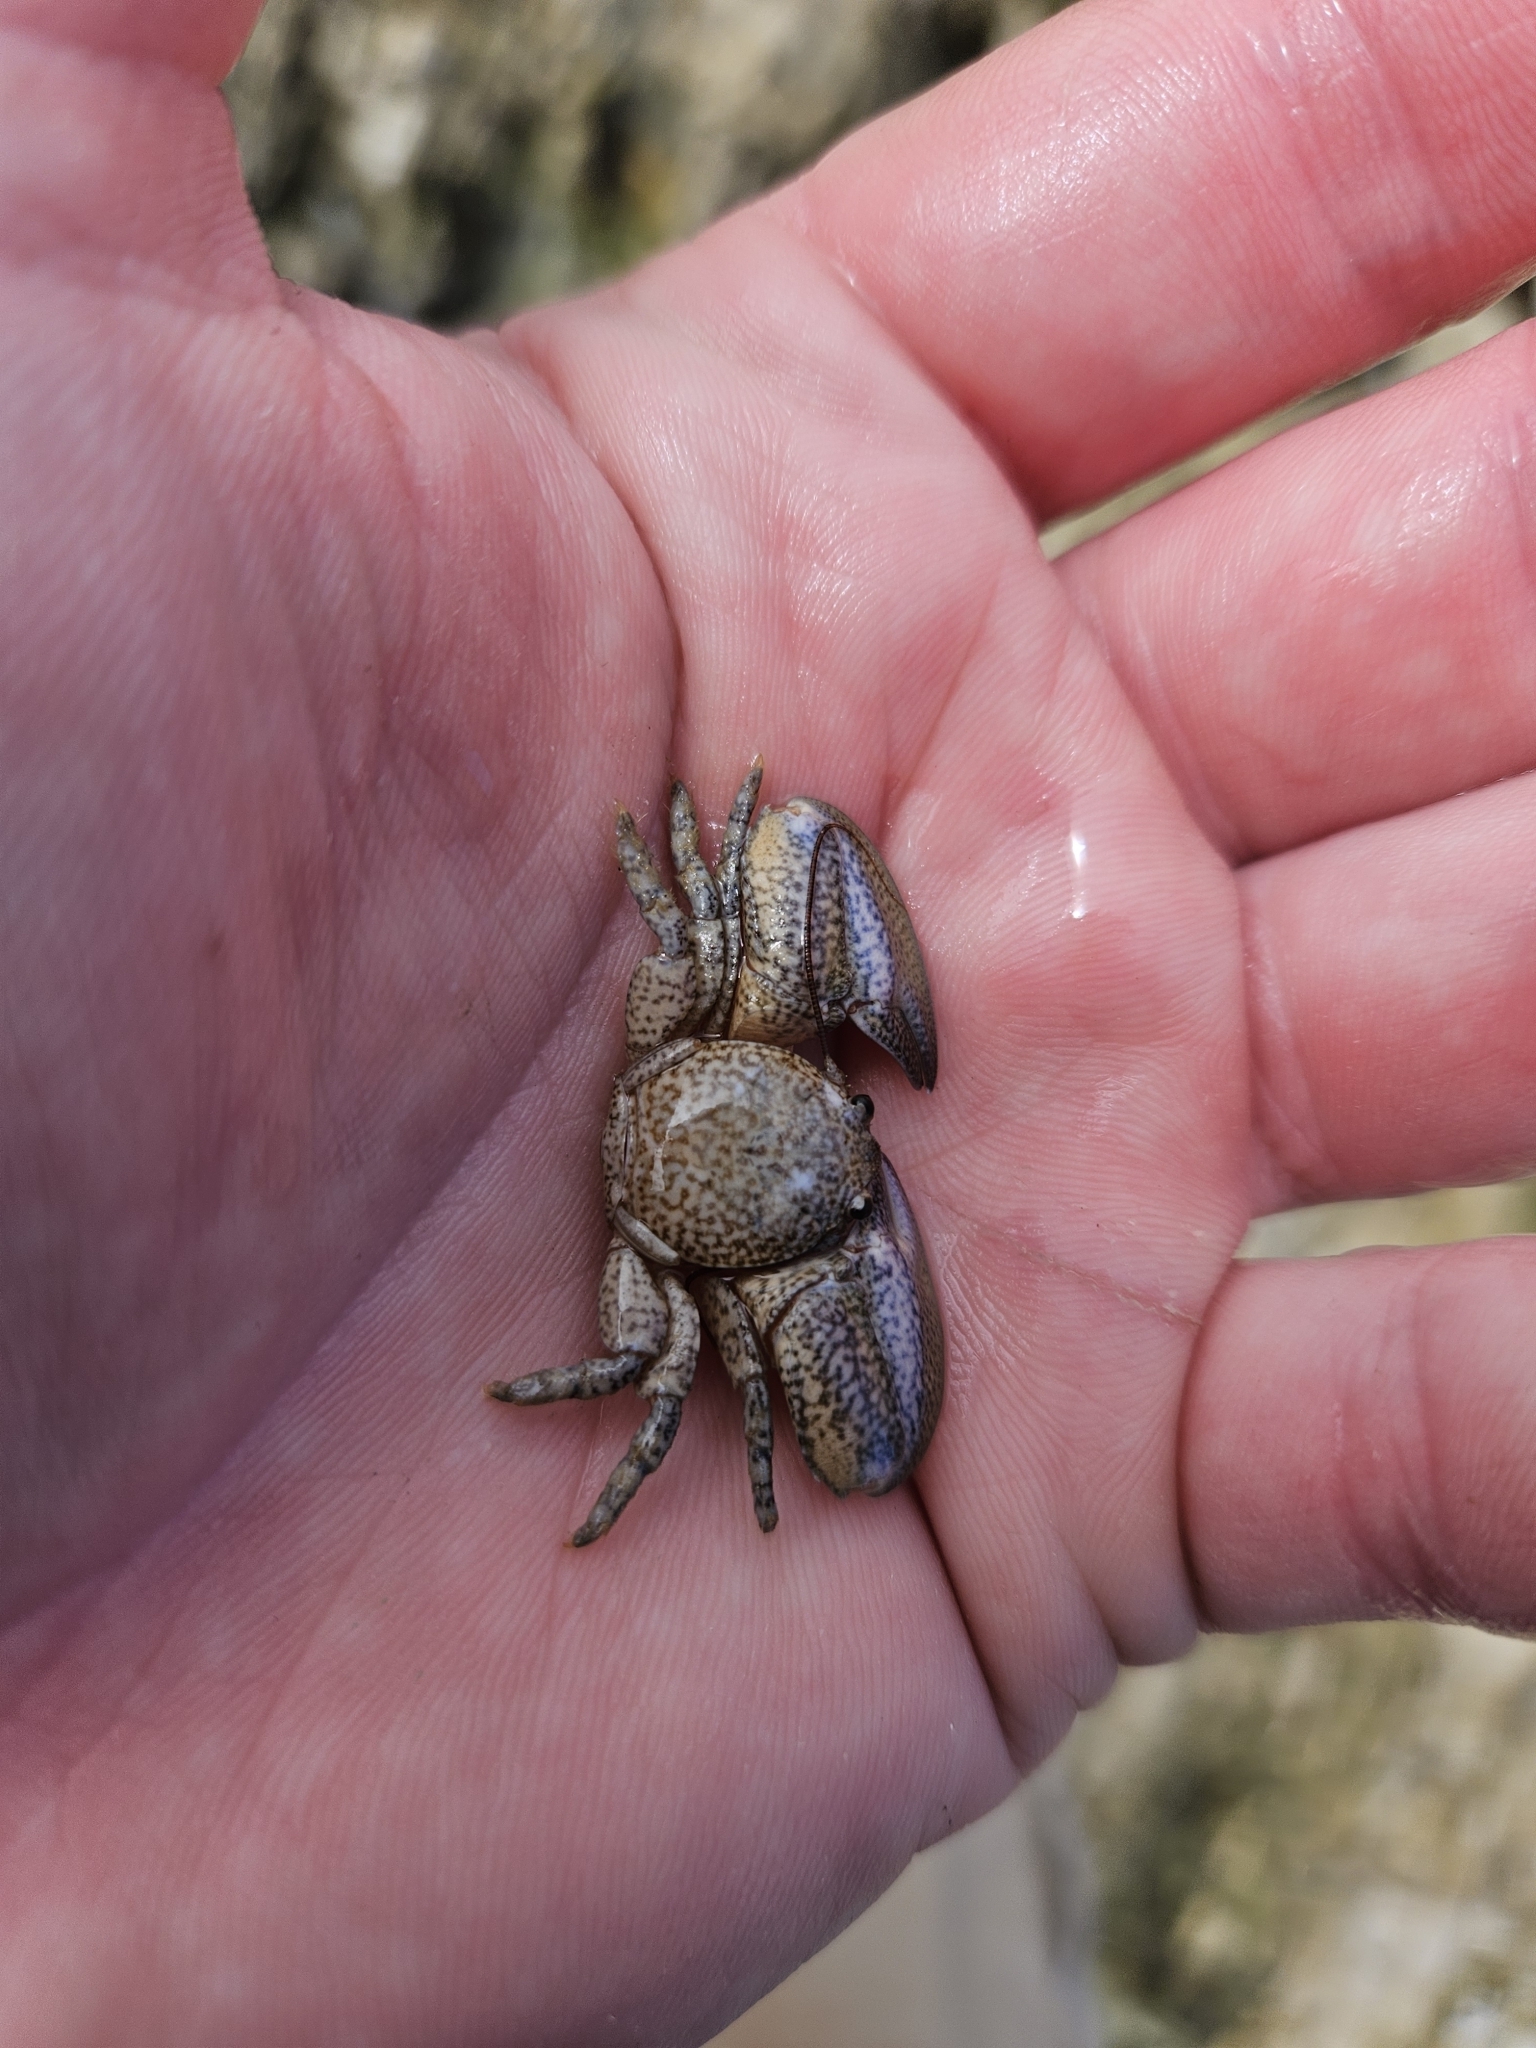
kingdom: Animalia
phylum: Arthropoda
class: Malacostraca
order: Decapoda
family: Porcellanidae
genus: Petrolisthes
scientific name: Petrolisthes elongatus
